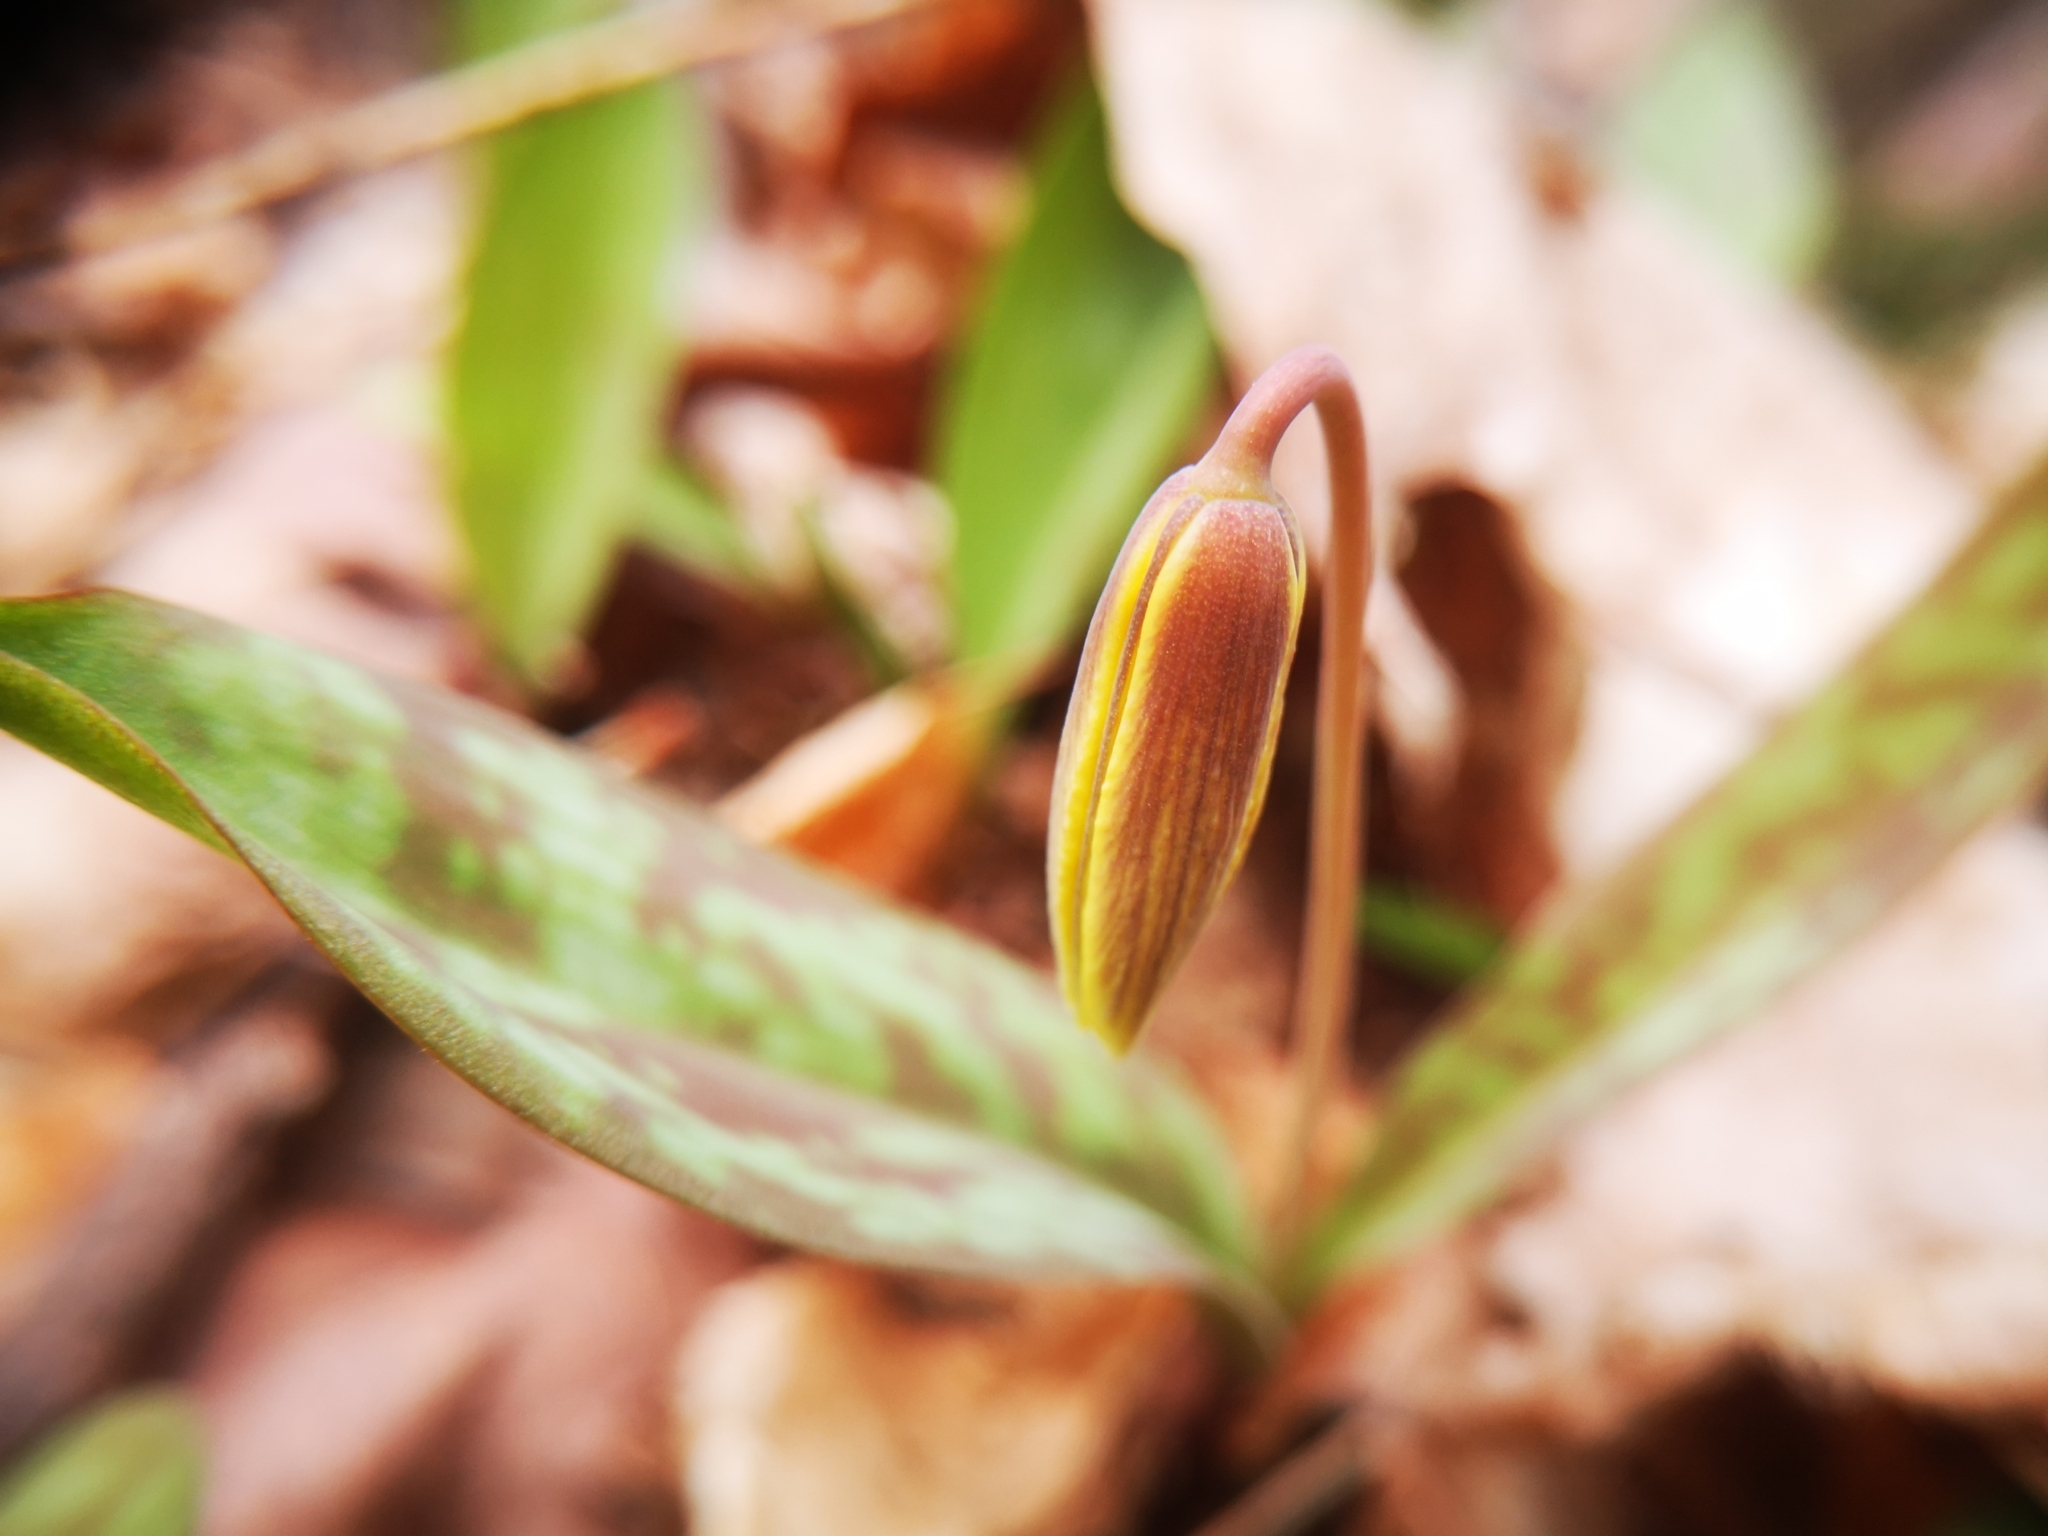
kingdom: Plantae
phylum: Tracheophyta
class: Liliopsida
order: Liliales
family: Liliaceae
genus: Erythronium
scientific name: Erythronium americanum
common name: Yellow adder's-tongue
